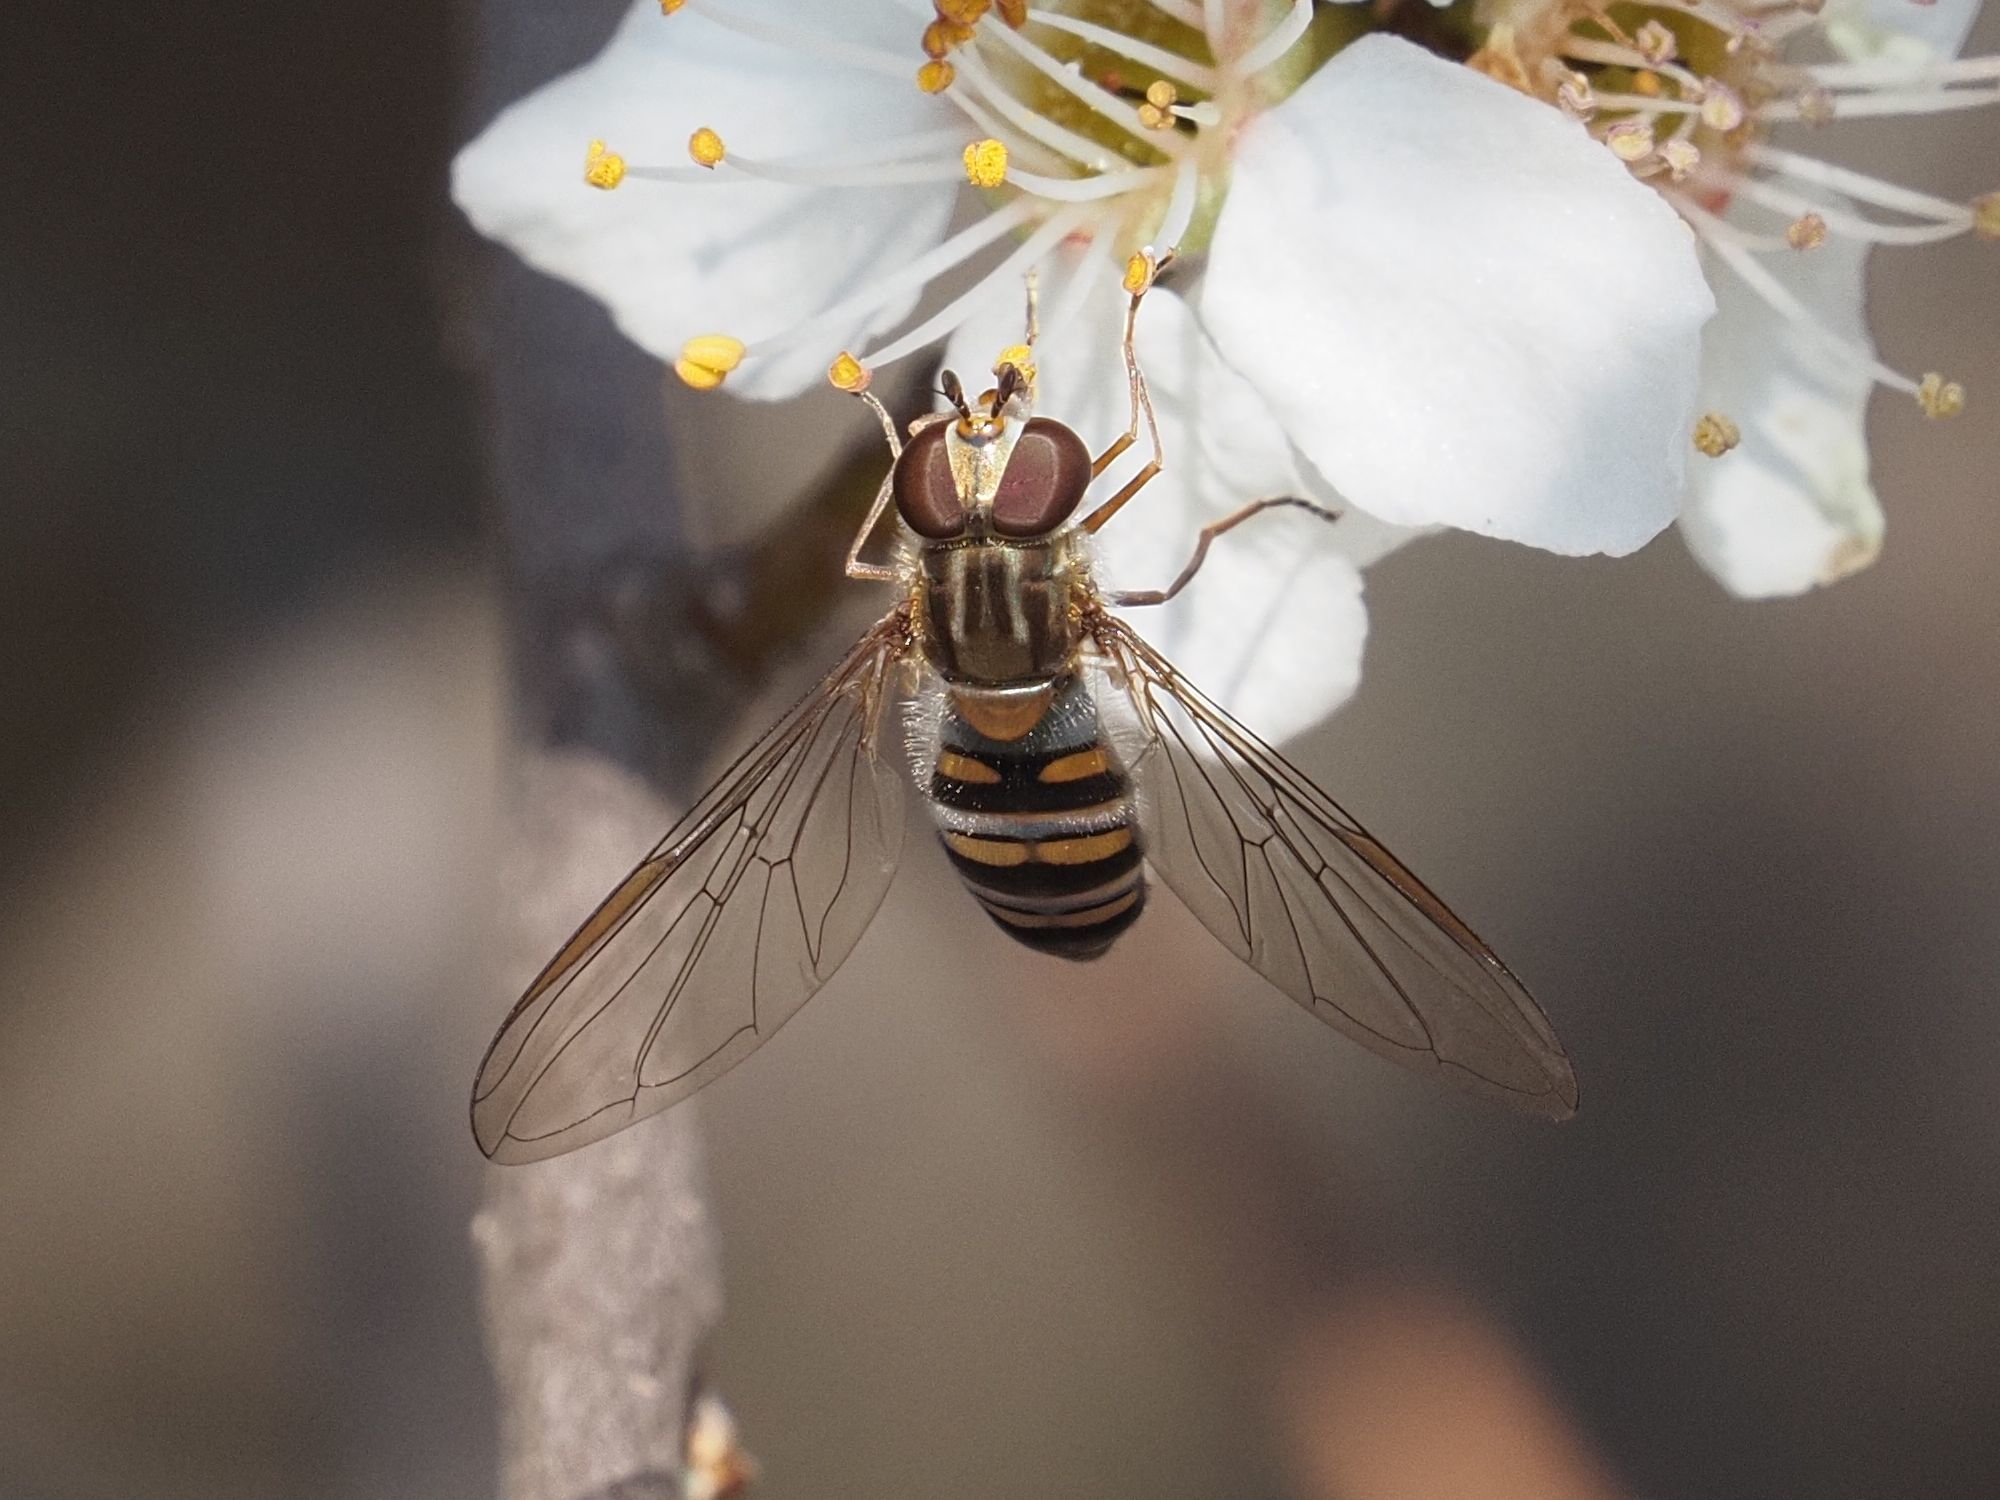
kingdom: Animalia
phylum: Arthropoda
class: Insecta
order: Diptera
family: Syrphidae
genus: Episyrphus
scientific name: Episyrphus balteatus
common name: Marmalade hoverfly
